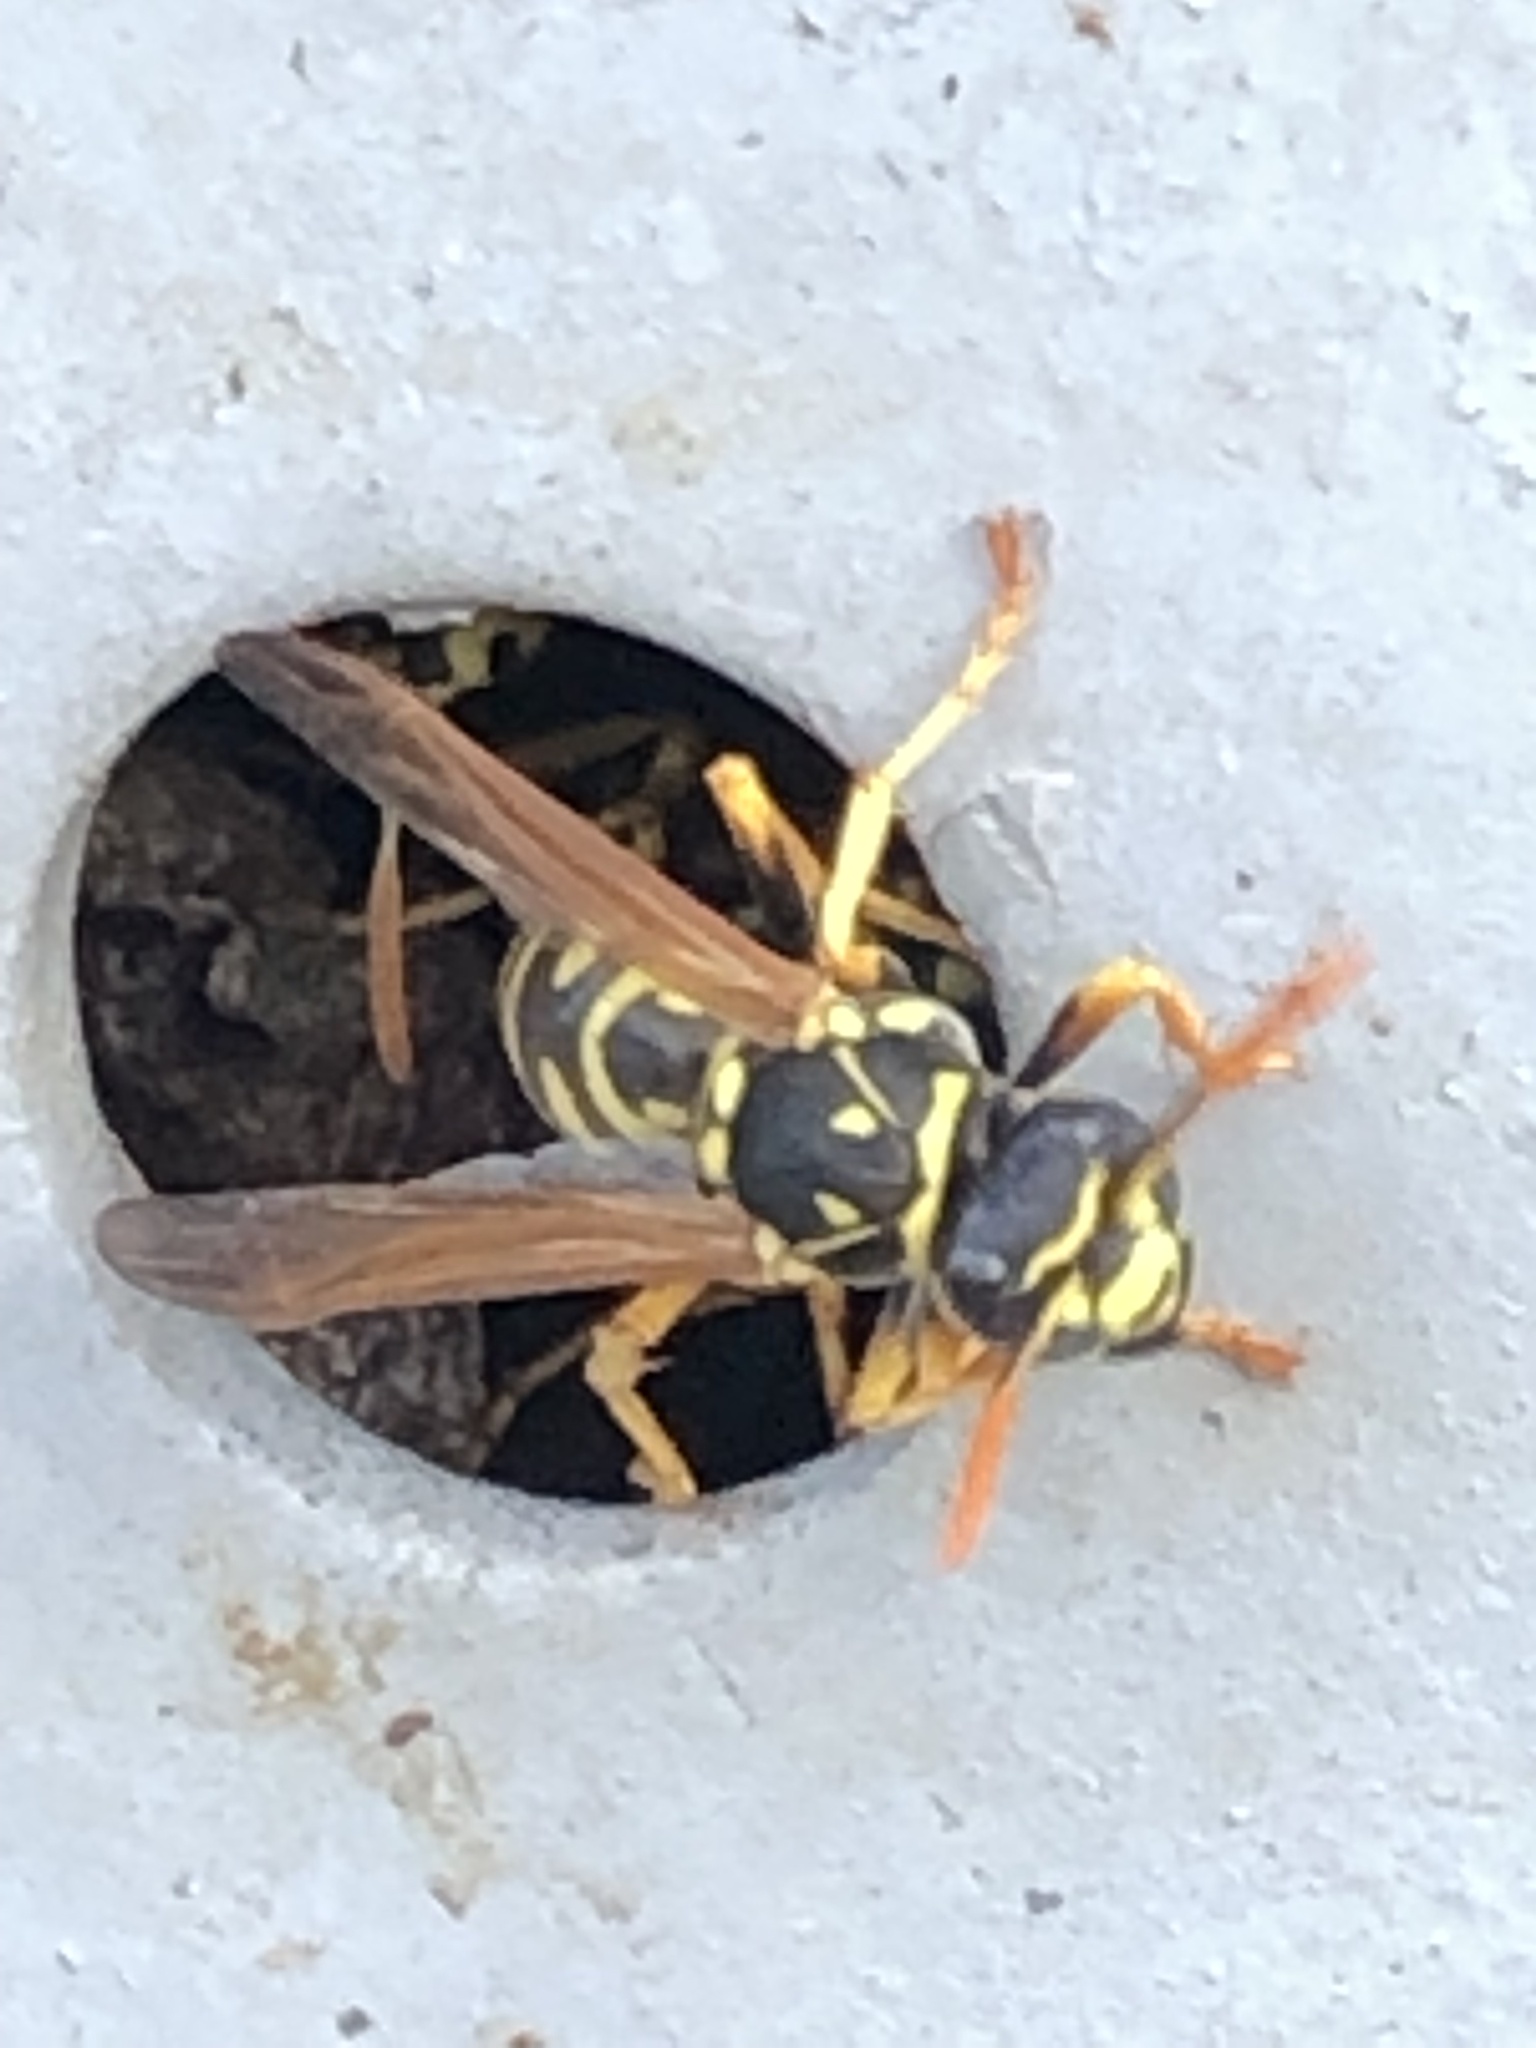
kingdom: Animalia
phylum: Arthropoda
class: Insecta
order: Hymenoptera
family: Eumenidae
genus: Polistes
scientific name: Polistes dominula
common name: Paper wasp
